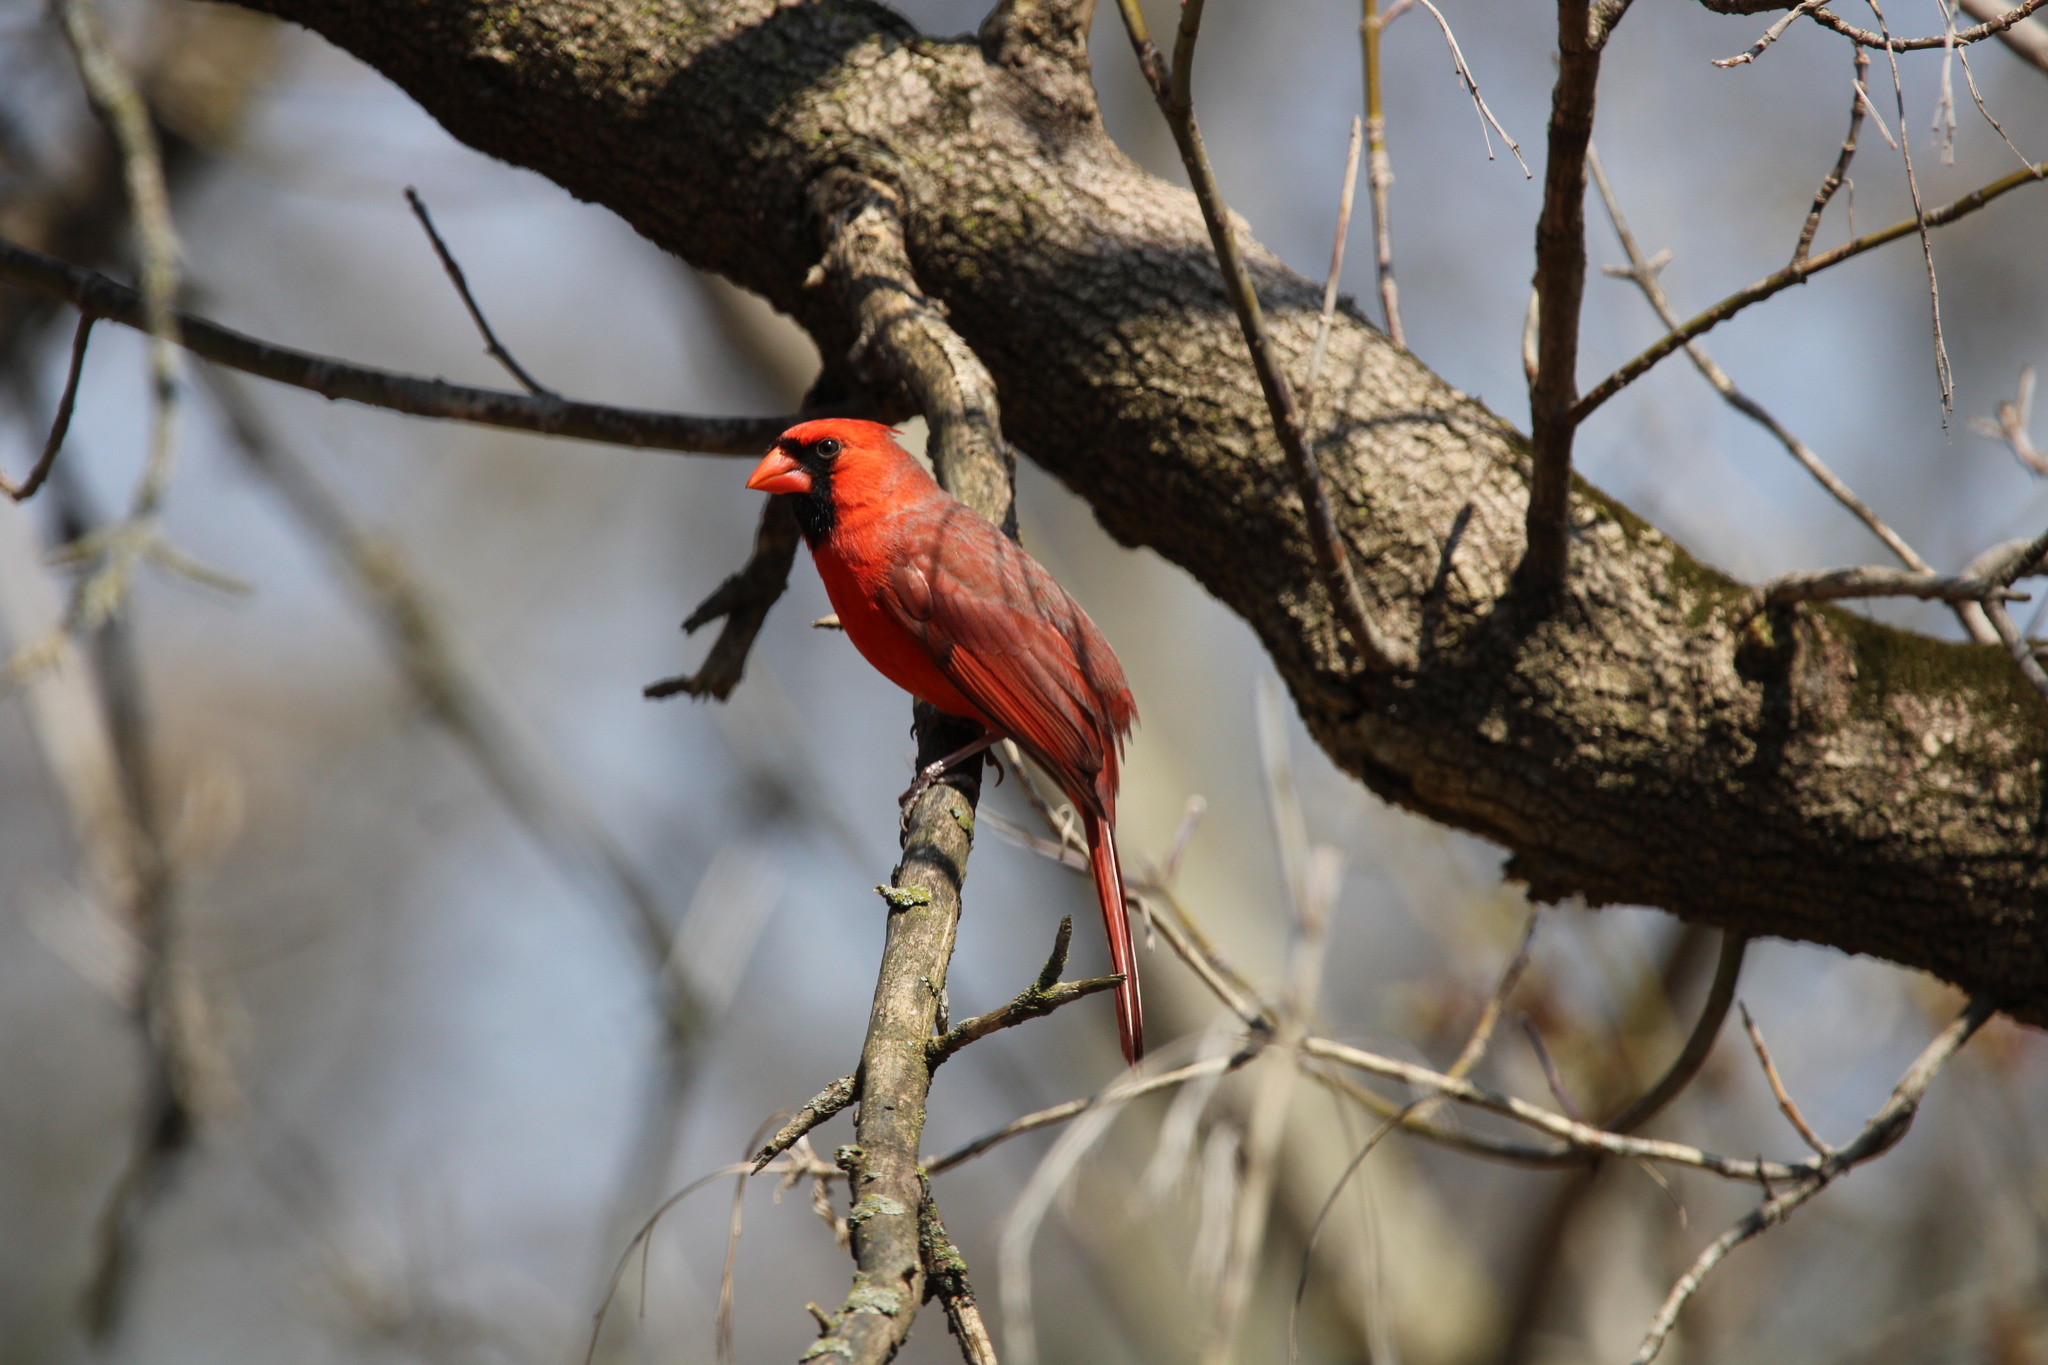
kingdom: Animalia
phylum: Chordata
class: Aves
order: Passeriformes
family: Cardinalidae
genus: Cardinalis
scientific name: Cardinalis cardinalis
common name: Northern cardinal
